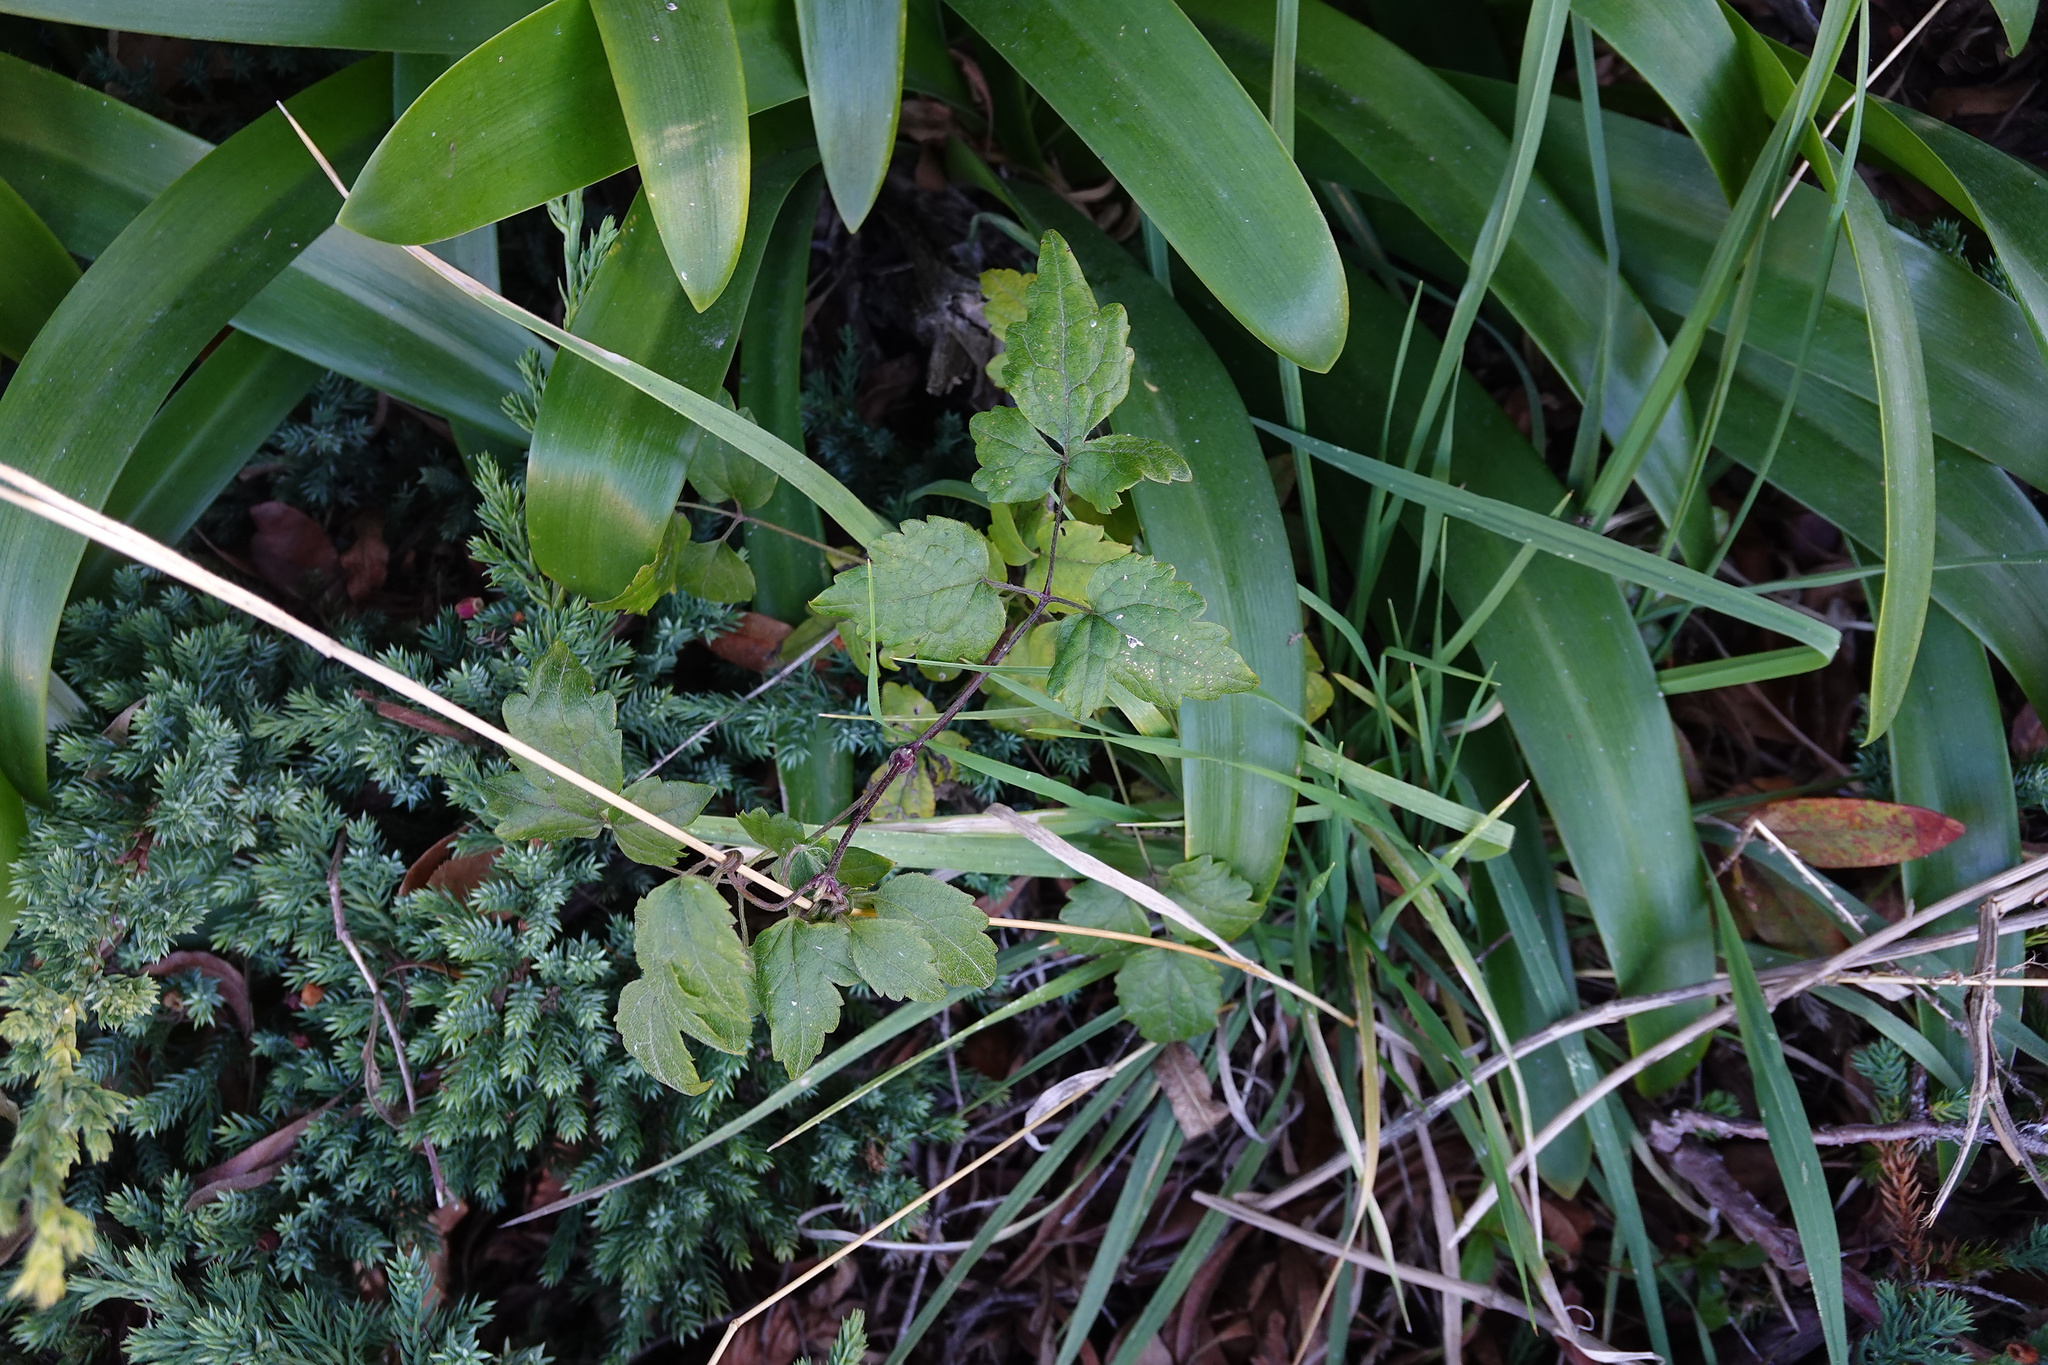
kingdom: Plantae
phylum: Tracheophyta
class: Magnoliopsida
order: Ranunculales
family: Ranunculaceae
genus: Clematis
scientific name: Clematis vitalba
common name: Evergreen clematis
